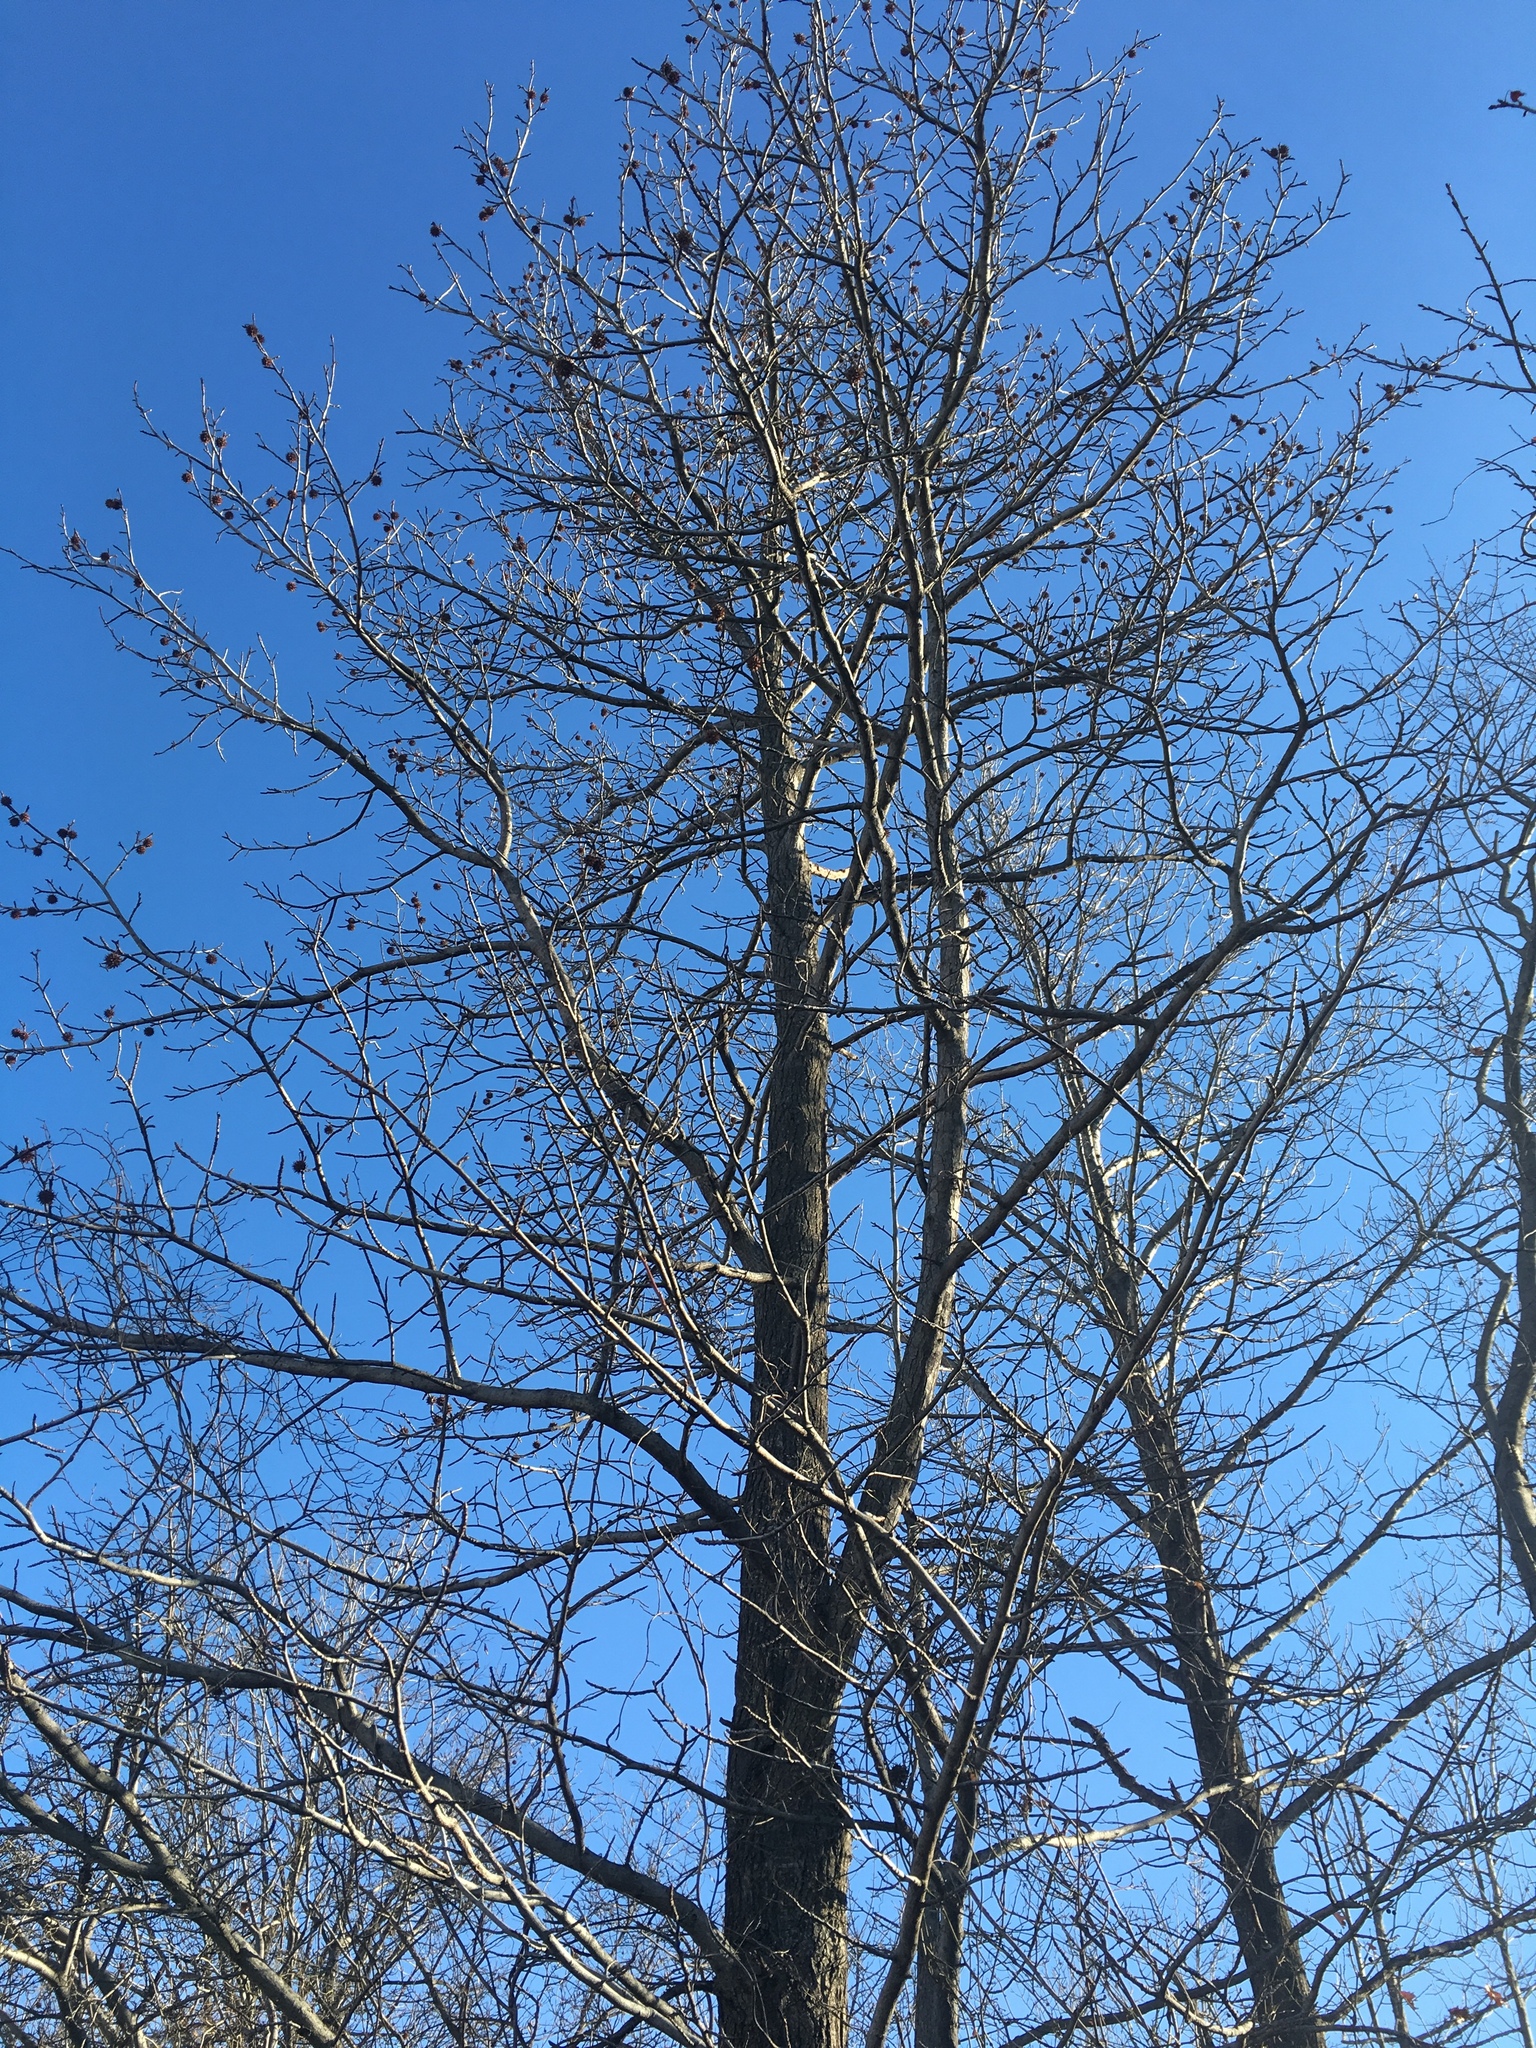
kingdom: Plantae
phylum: Tracheophyta
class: Magnoliopsida
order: Saxifragales
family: Altingiaceae
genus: Liquidambar
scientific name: Liquidambar styraciflua
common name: Sweet gum
